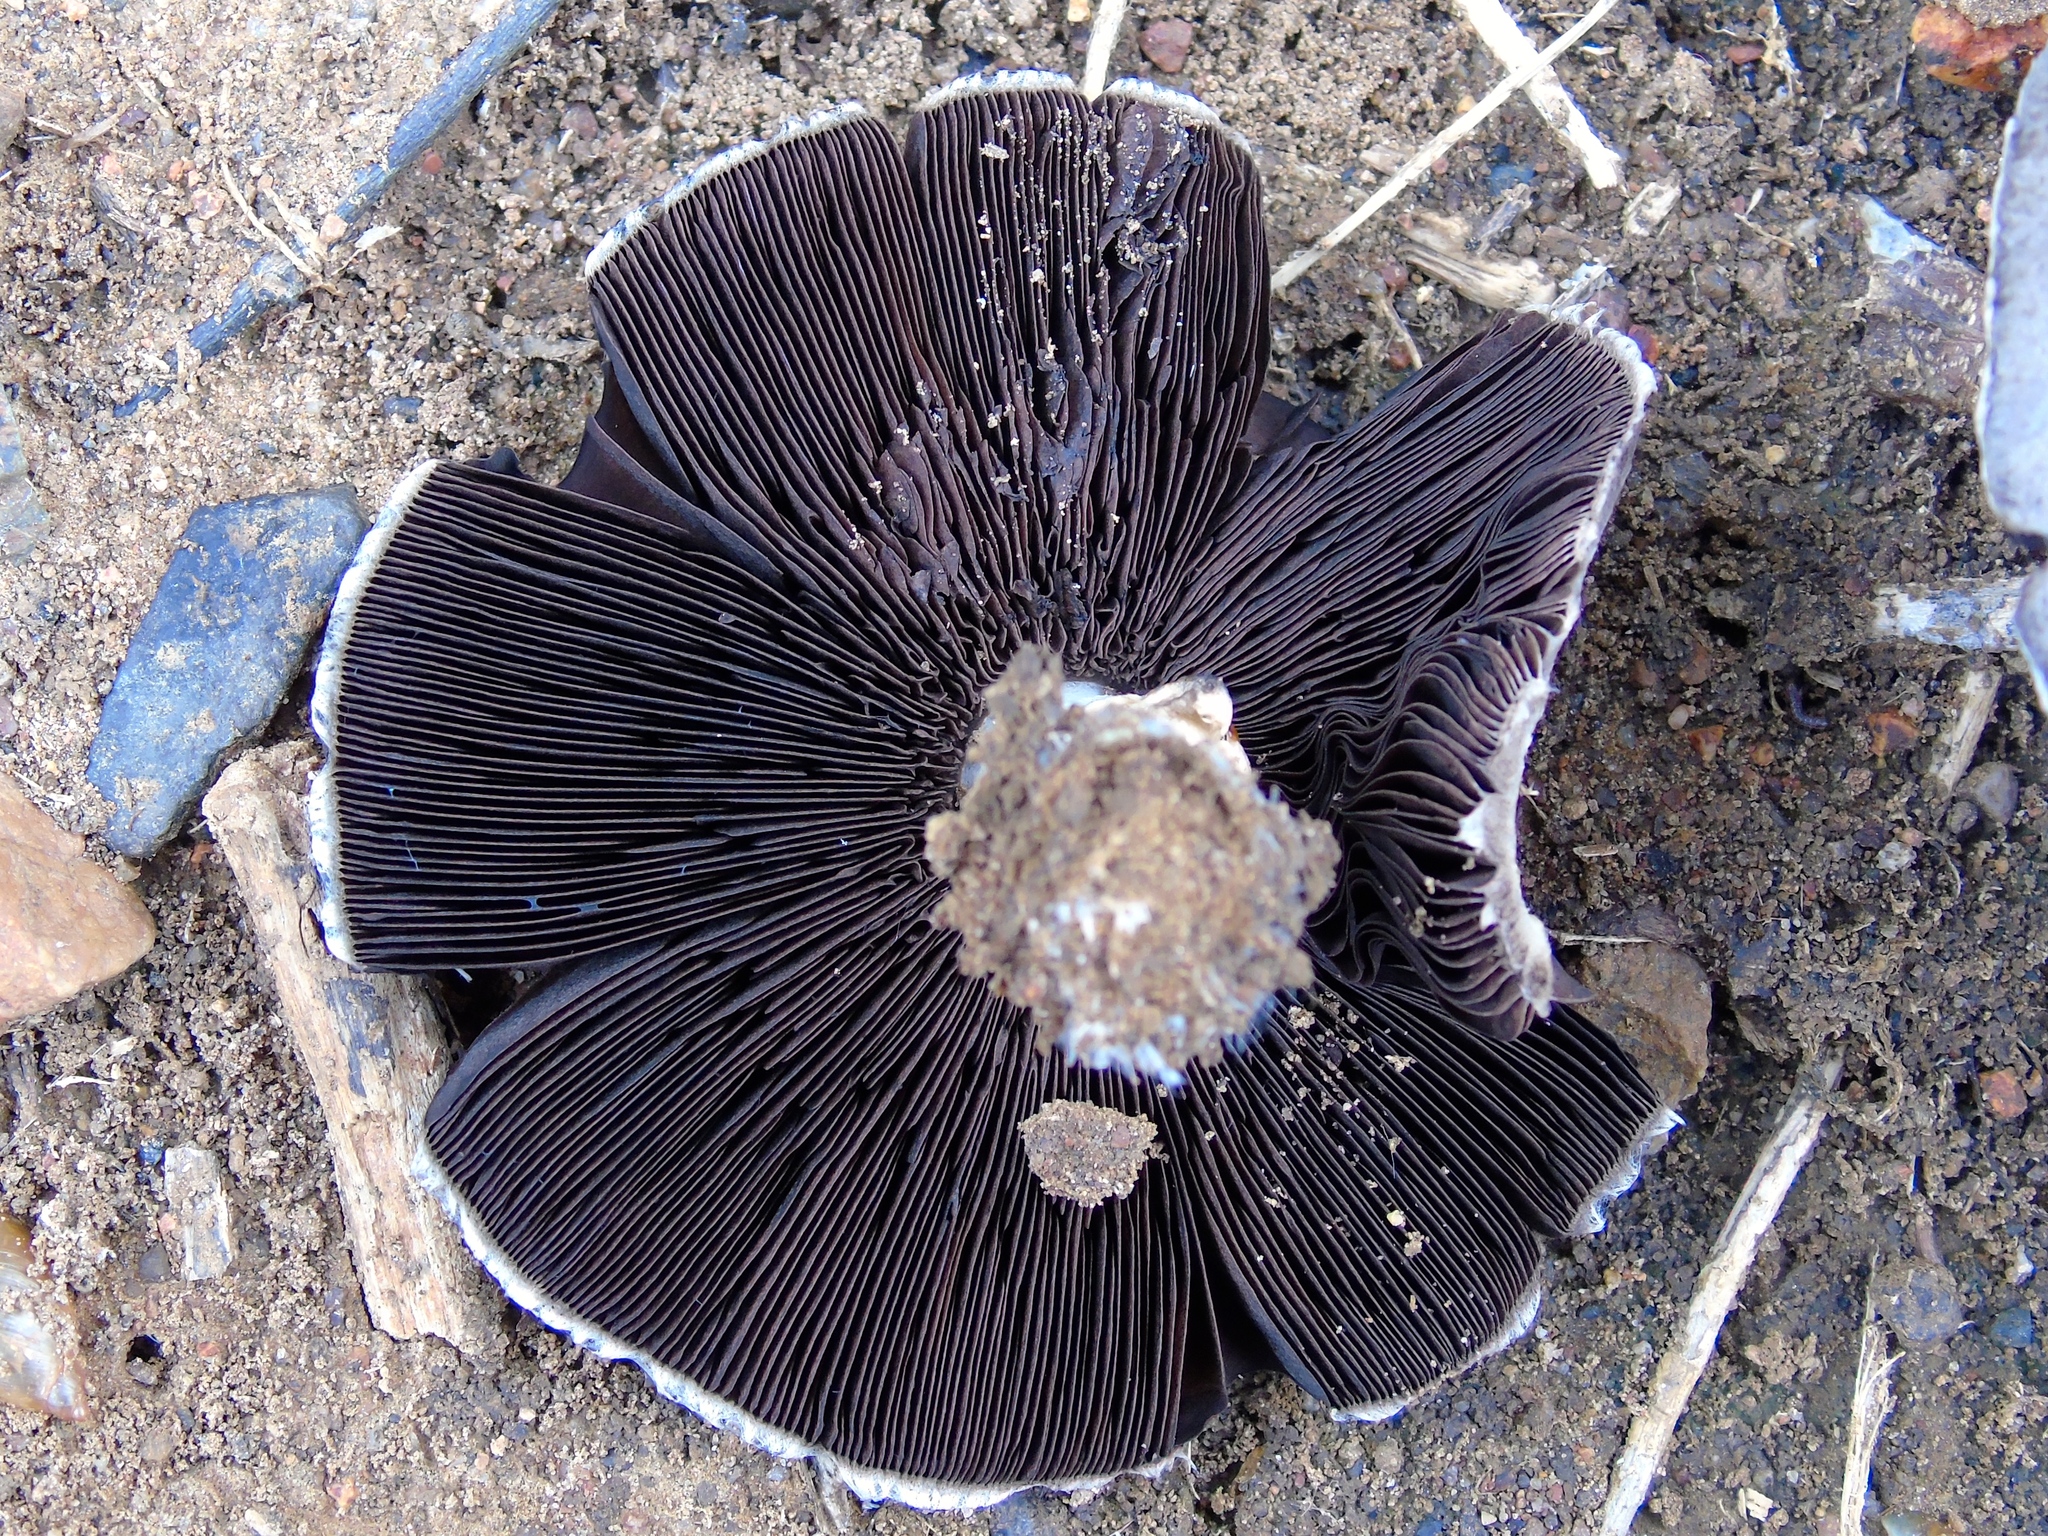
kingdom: Fungi
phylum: Basidiomycota
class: Agaricomycetes
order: Agaricales
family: Agaricaceae
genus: Agaricus
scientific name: Agaricus
